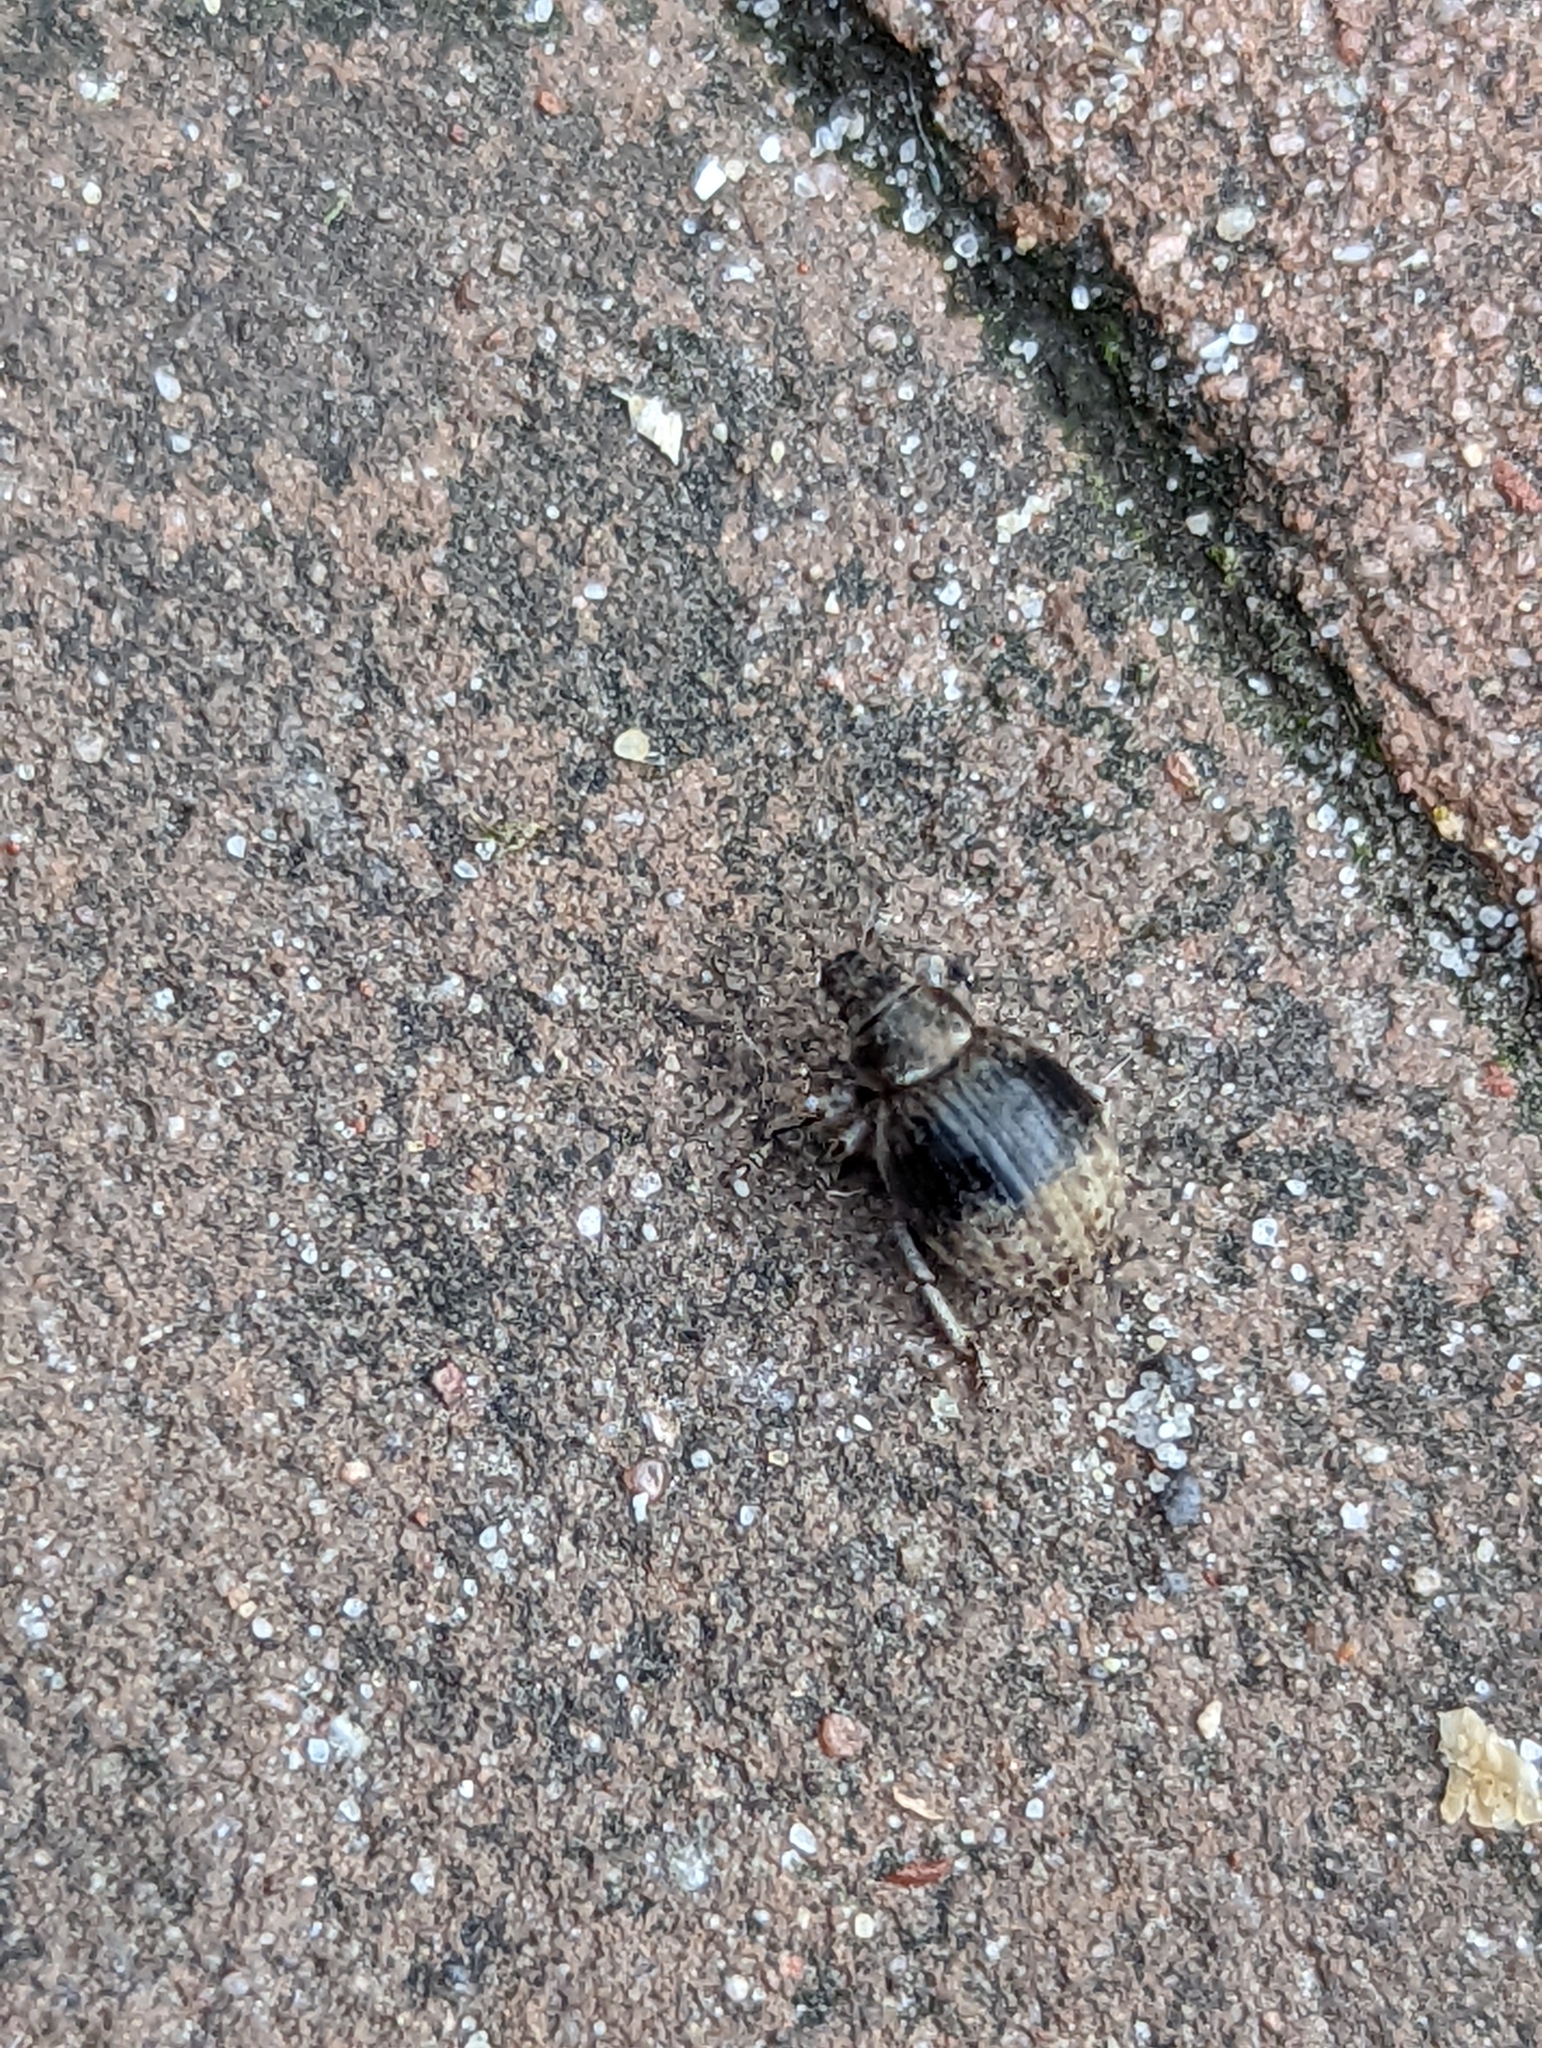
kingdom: Animalia
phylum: Arthropoda
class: Insecta
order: Coleoptera
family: Curculionidae
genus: Philopedon
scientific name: Philopedon plagiatum
